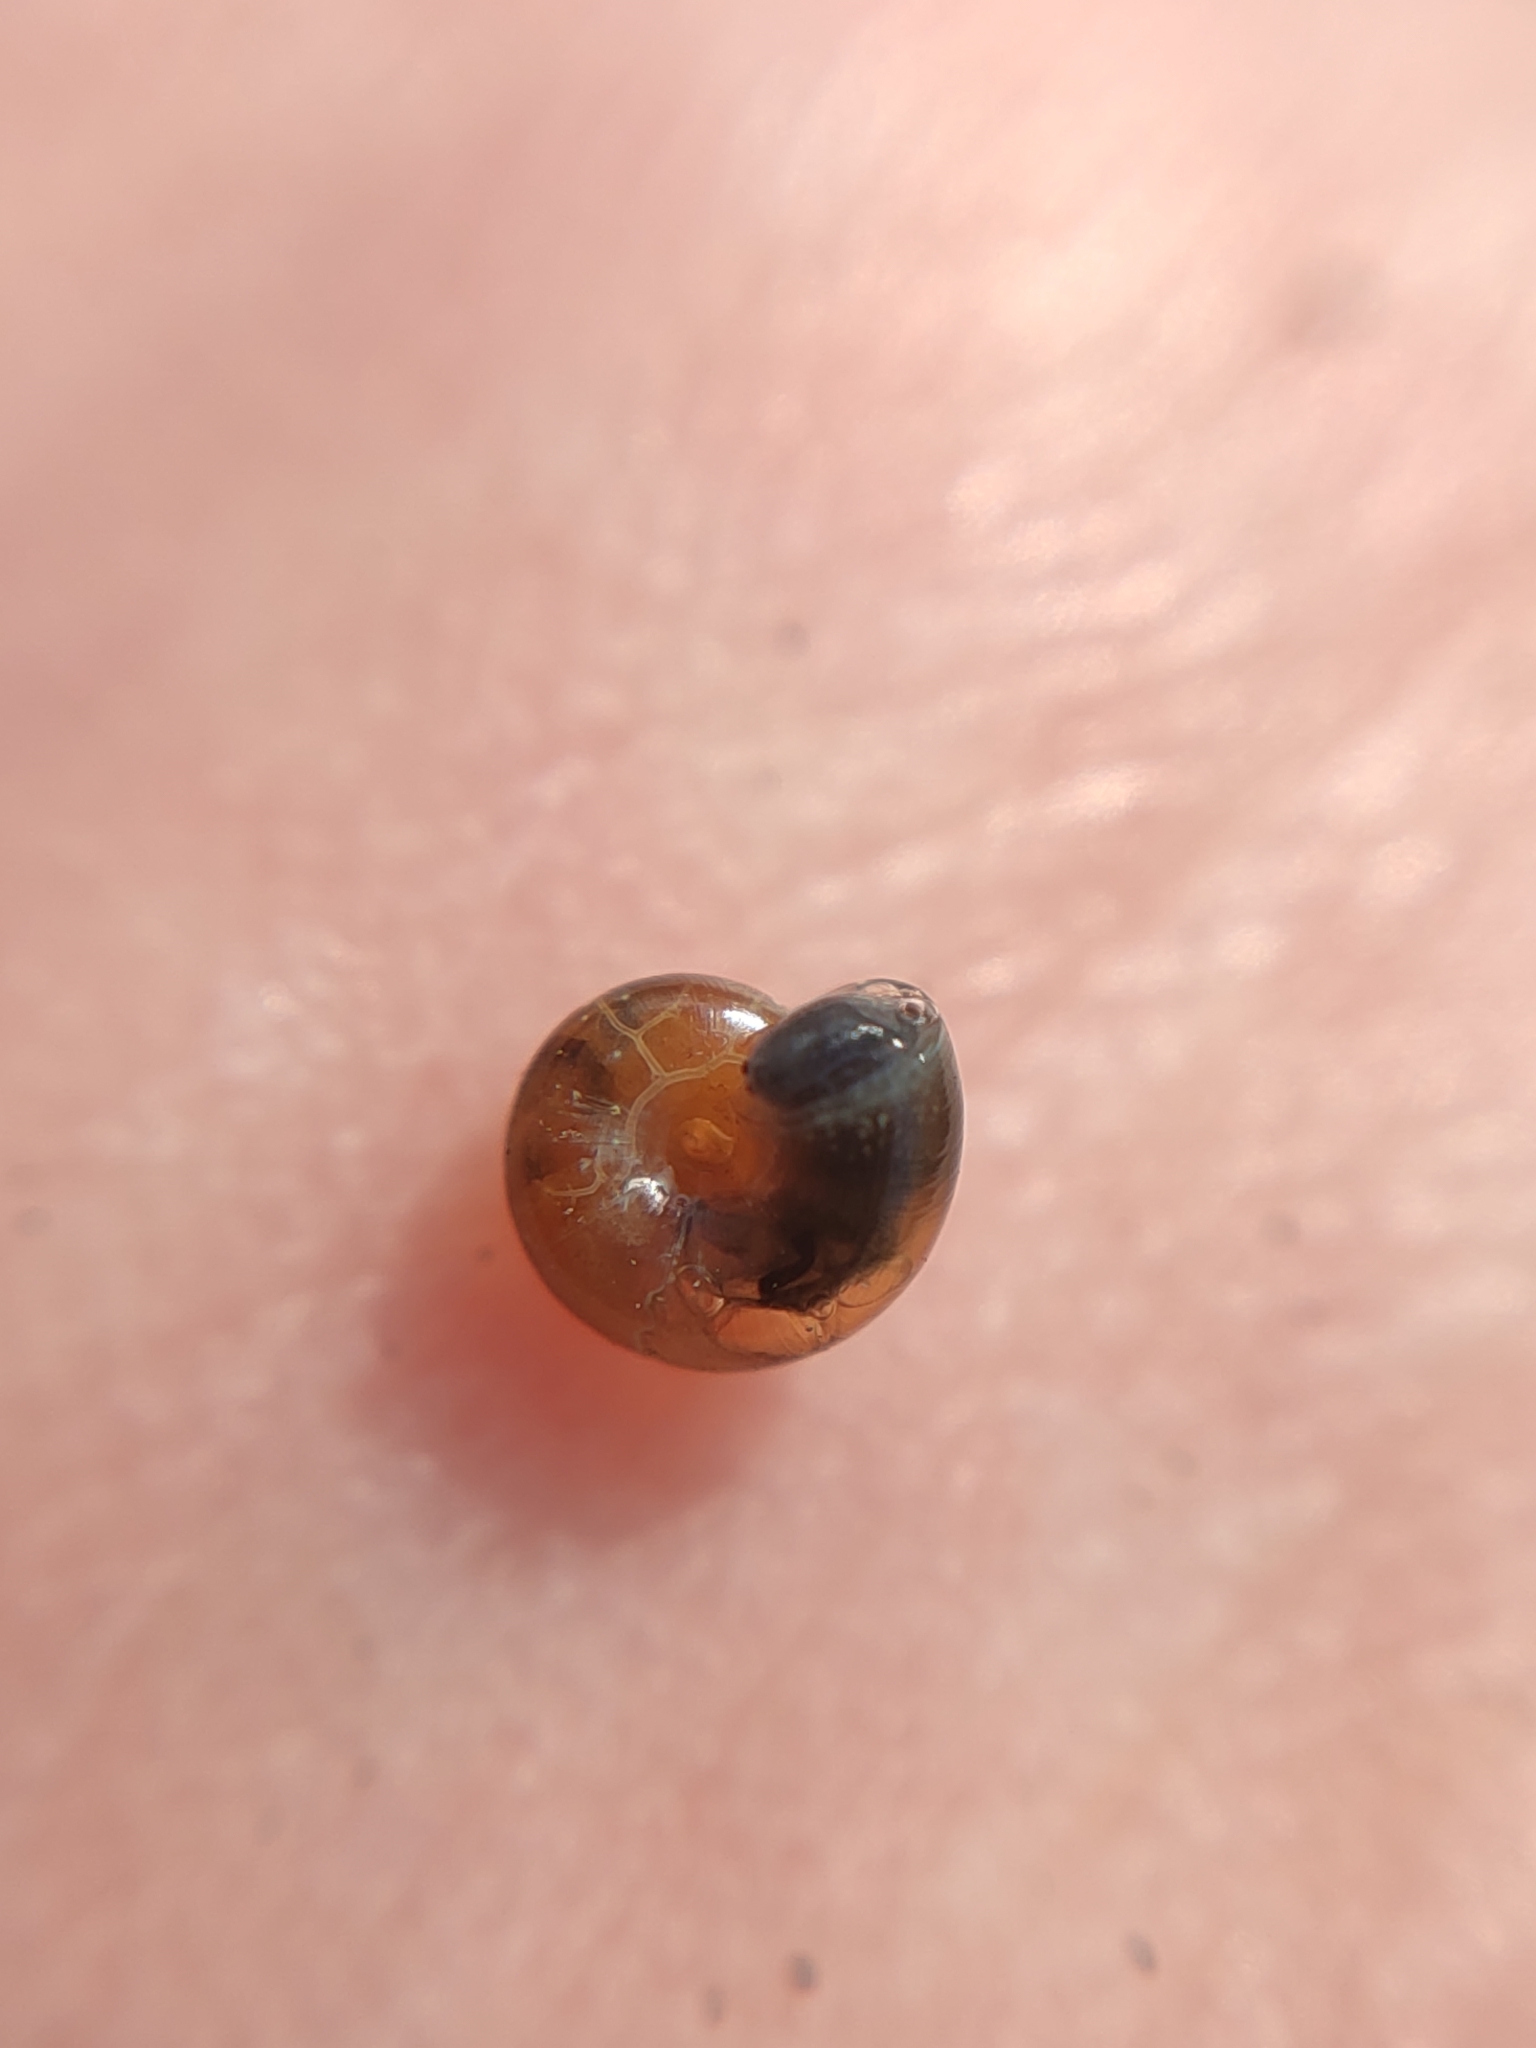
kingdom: Animalia
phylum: Mollusca
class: Gastropoda
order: Stylommatophora
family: Gastrodontidae
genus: Perpolita
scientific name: Perpolita hammonis
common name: Rayed glass snail
